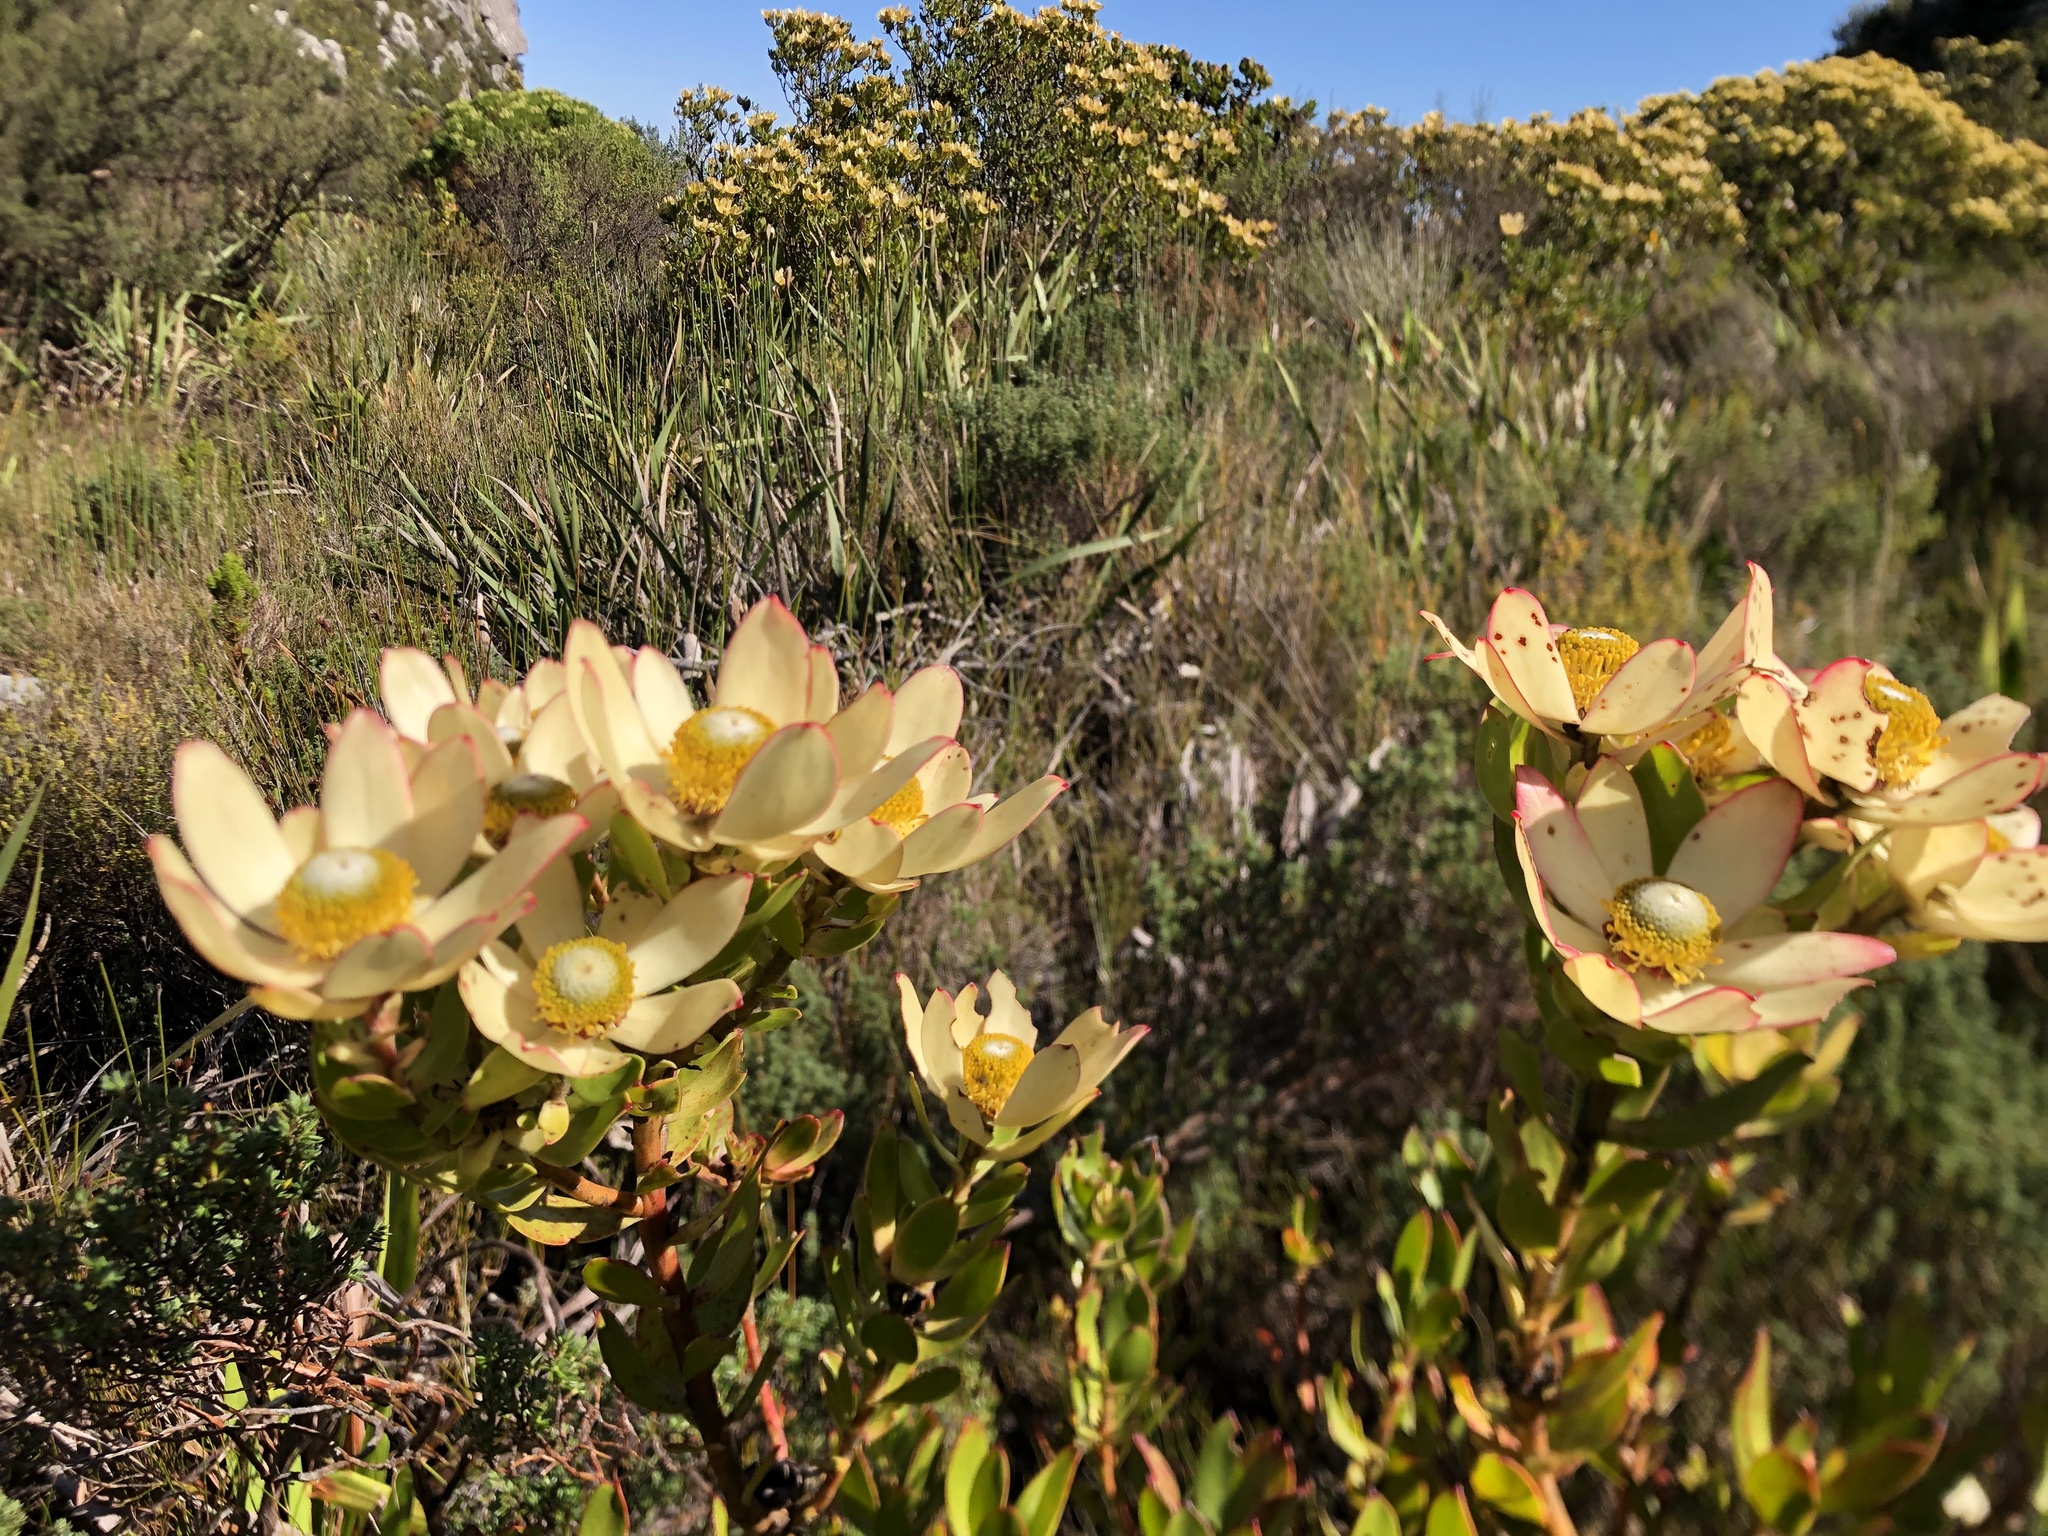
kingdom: Plantae
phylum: Tracheophyta
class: Magnoliopsida
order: Proteales
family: Proteaceae
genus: Leucadendron
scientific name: Leucadendron strobilinum
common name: Mountain rose
